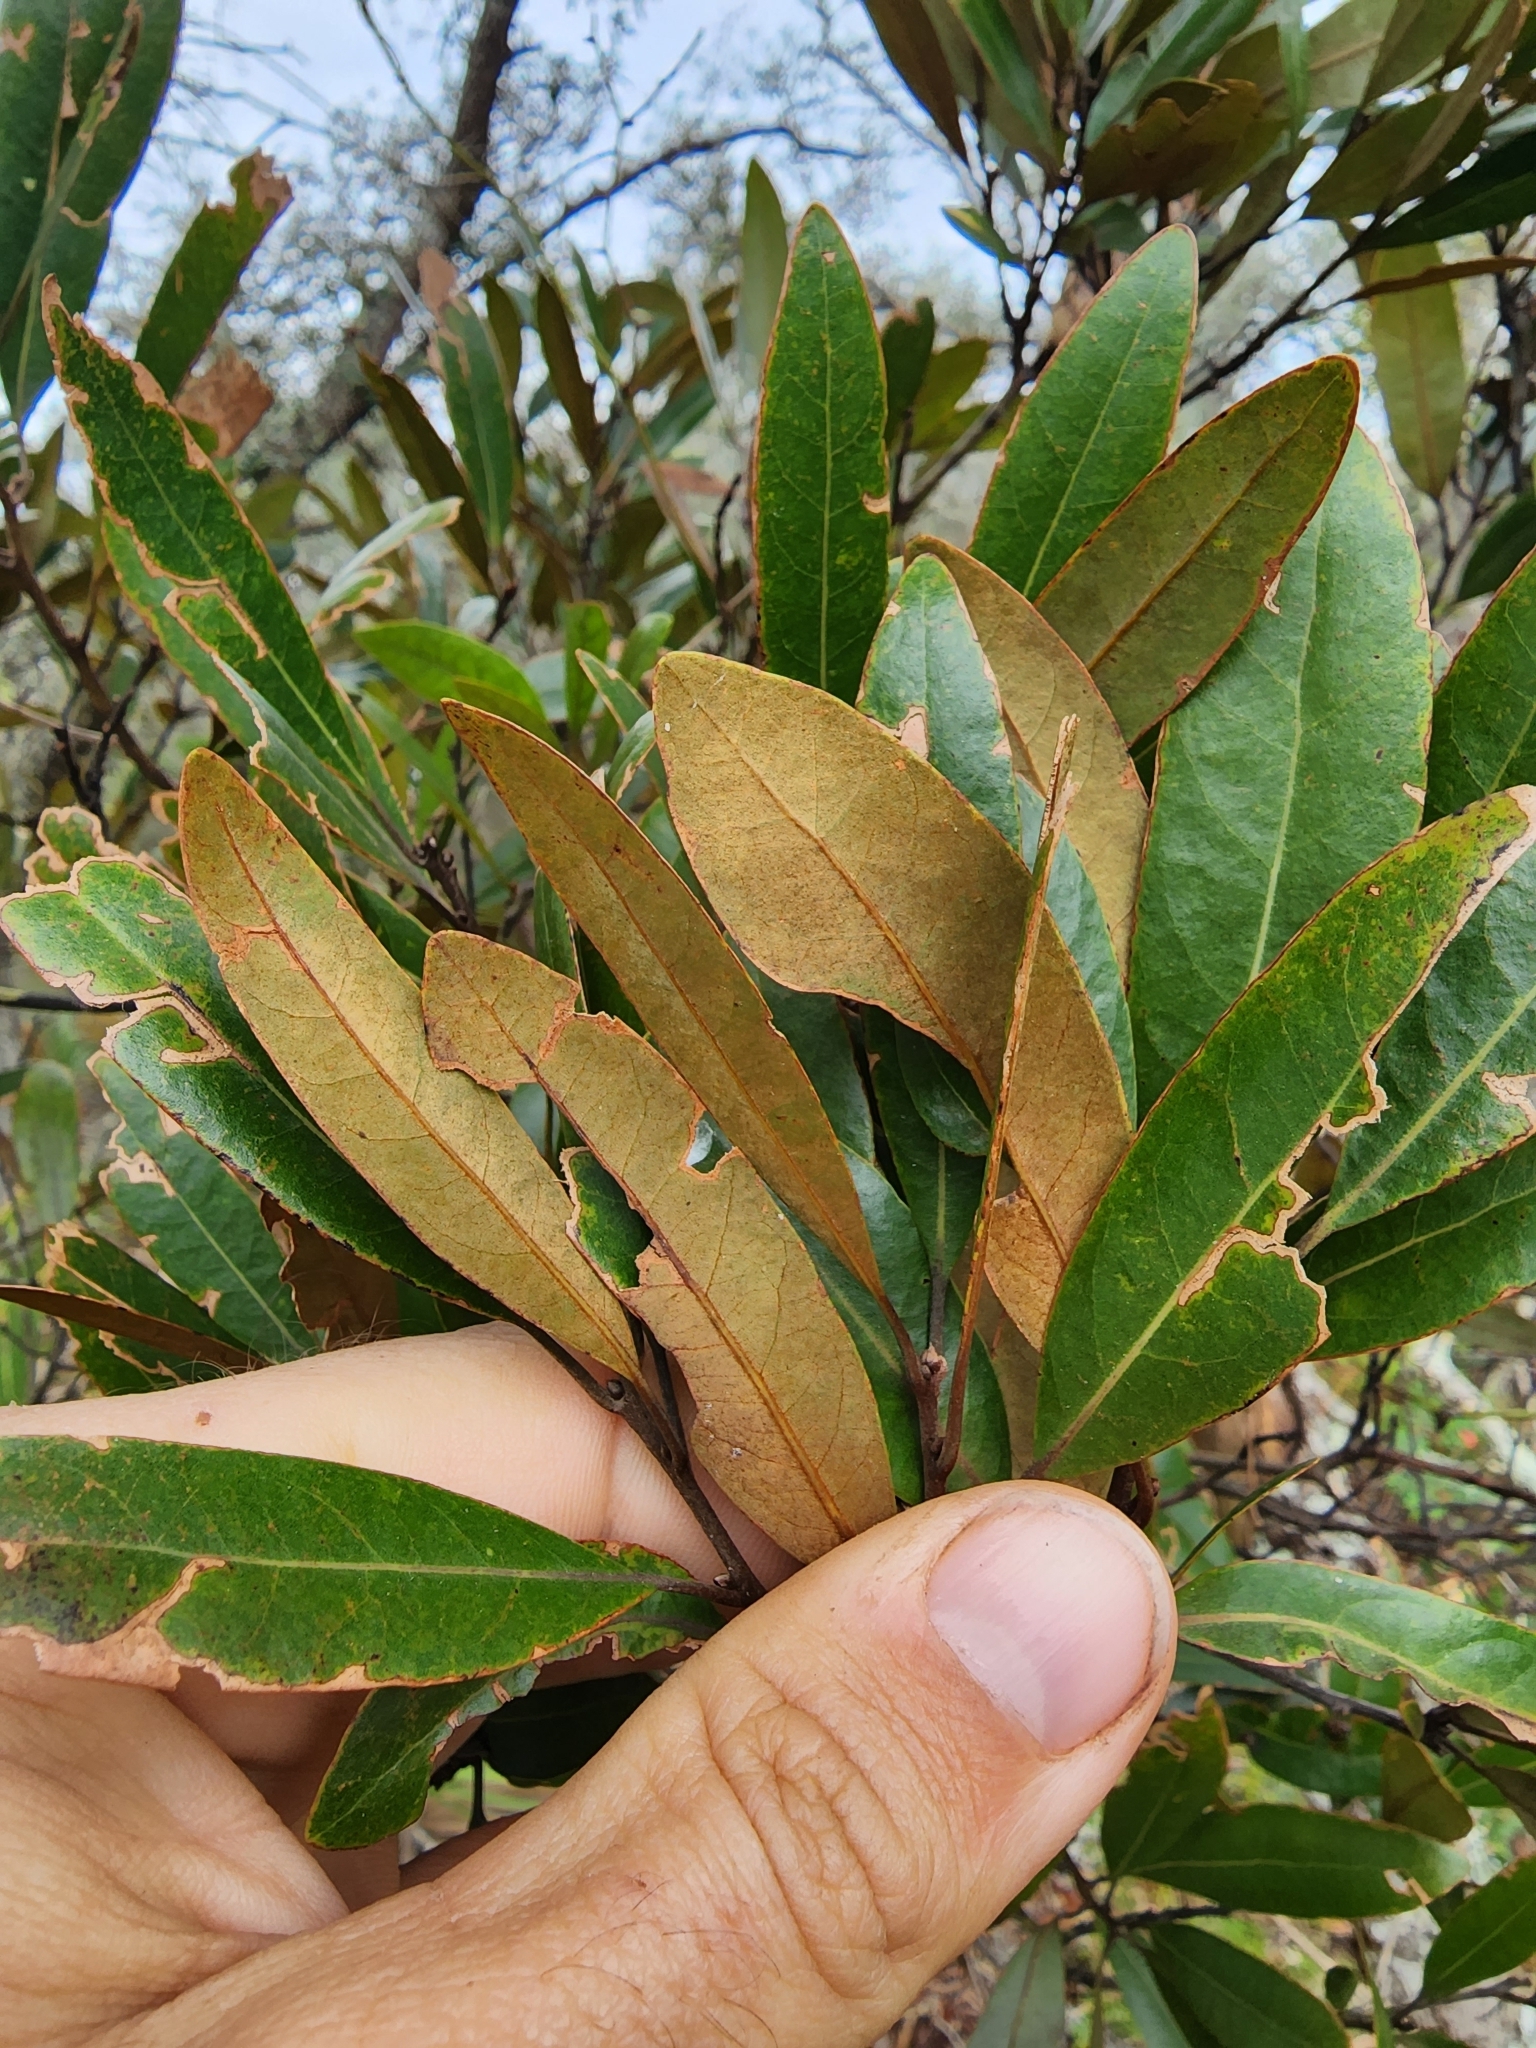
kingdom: Plantae
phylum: Tracheophyta
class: Magnoliopsida
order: Laurales
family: Lauraceae
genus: Persea
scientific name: Persea humilis
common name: Silkbay
